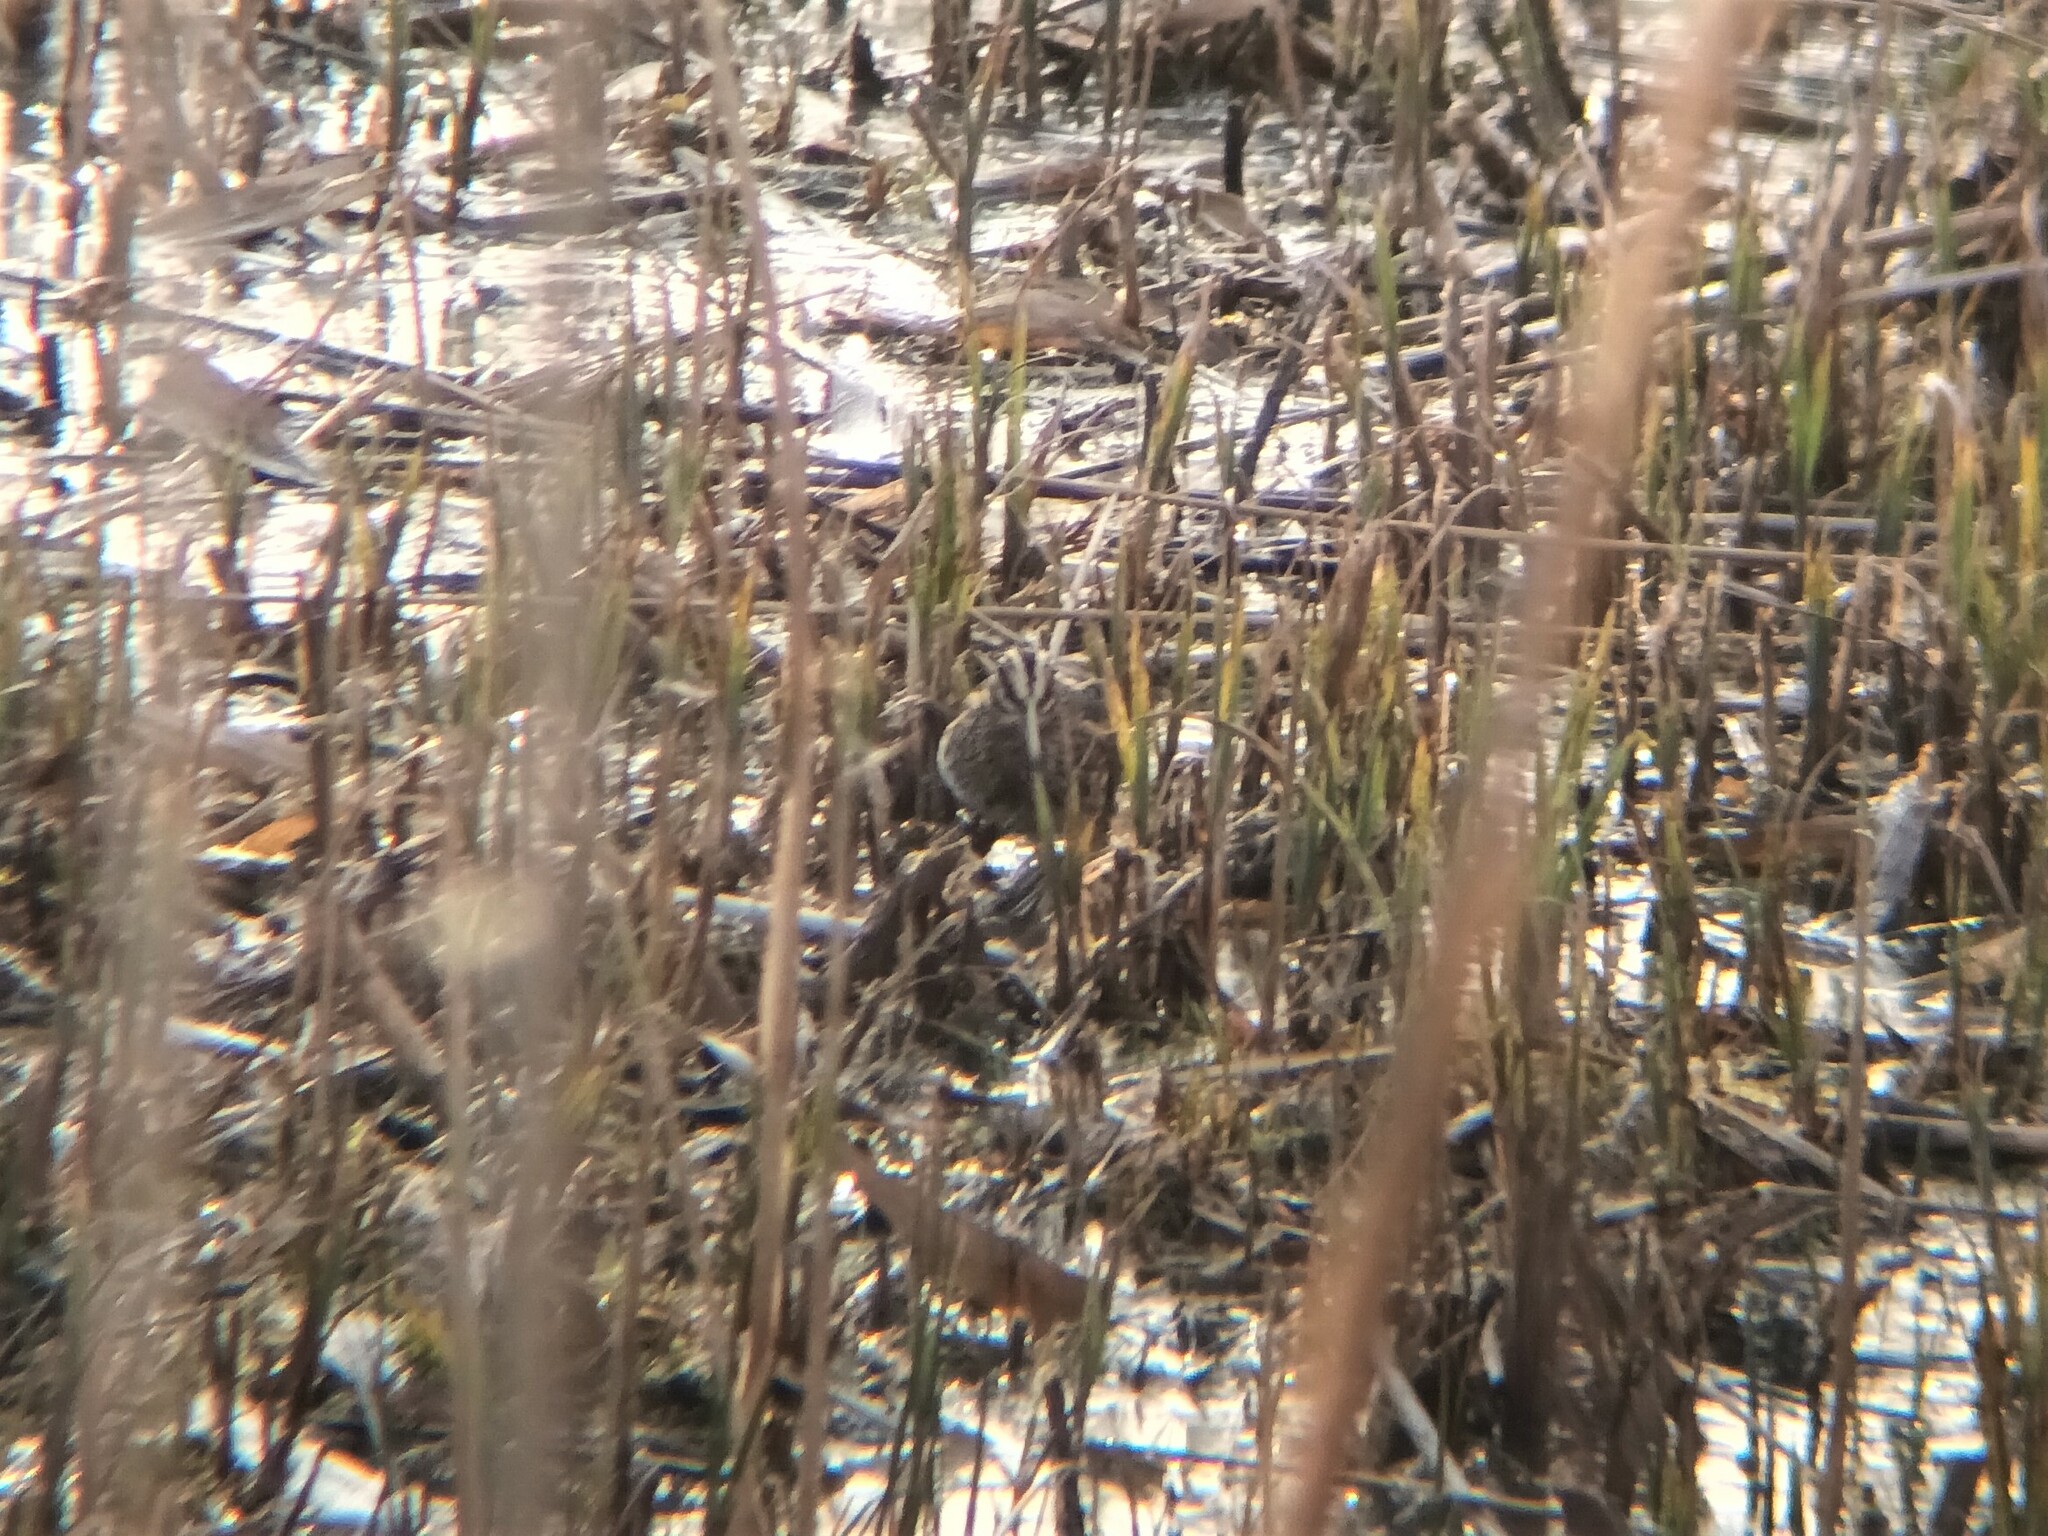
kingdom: Animalia
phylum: Chordata
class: Aves
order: Charadriiformes
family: Scolopacidae
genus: Lymnocryptes
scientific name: Lymnocryptes minimus
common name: Jack snipe
